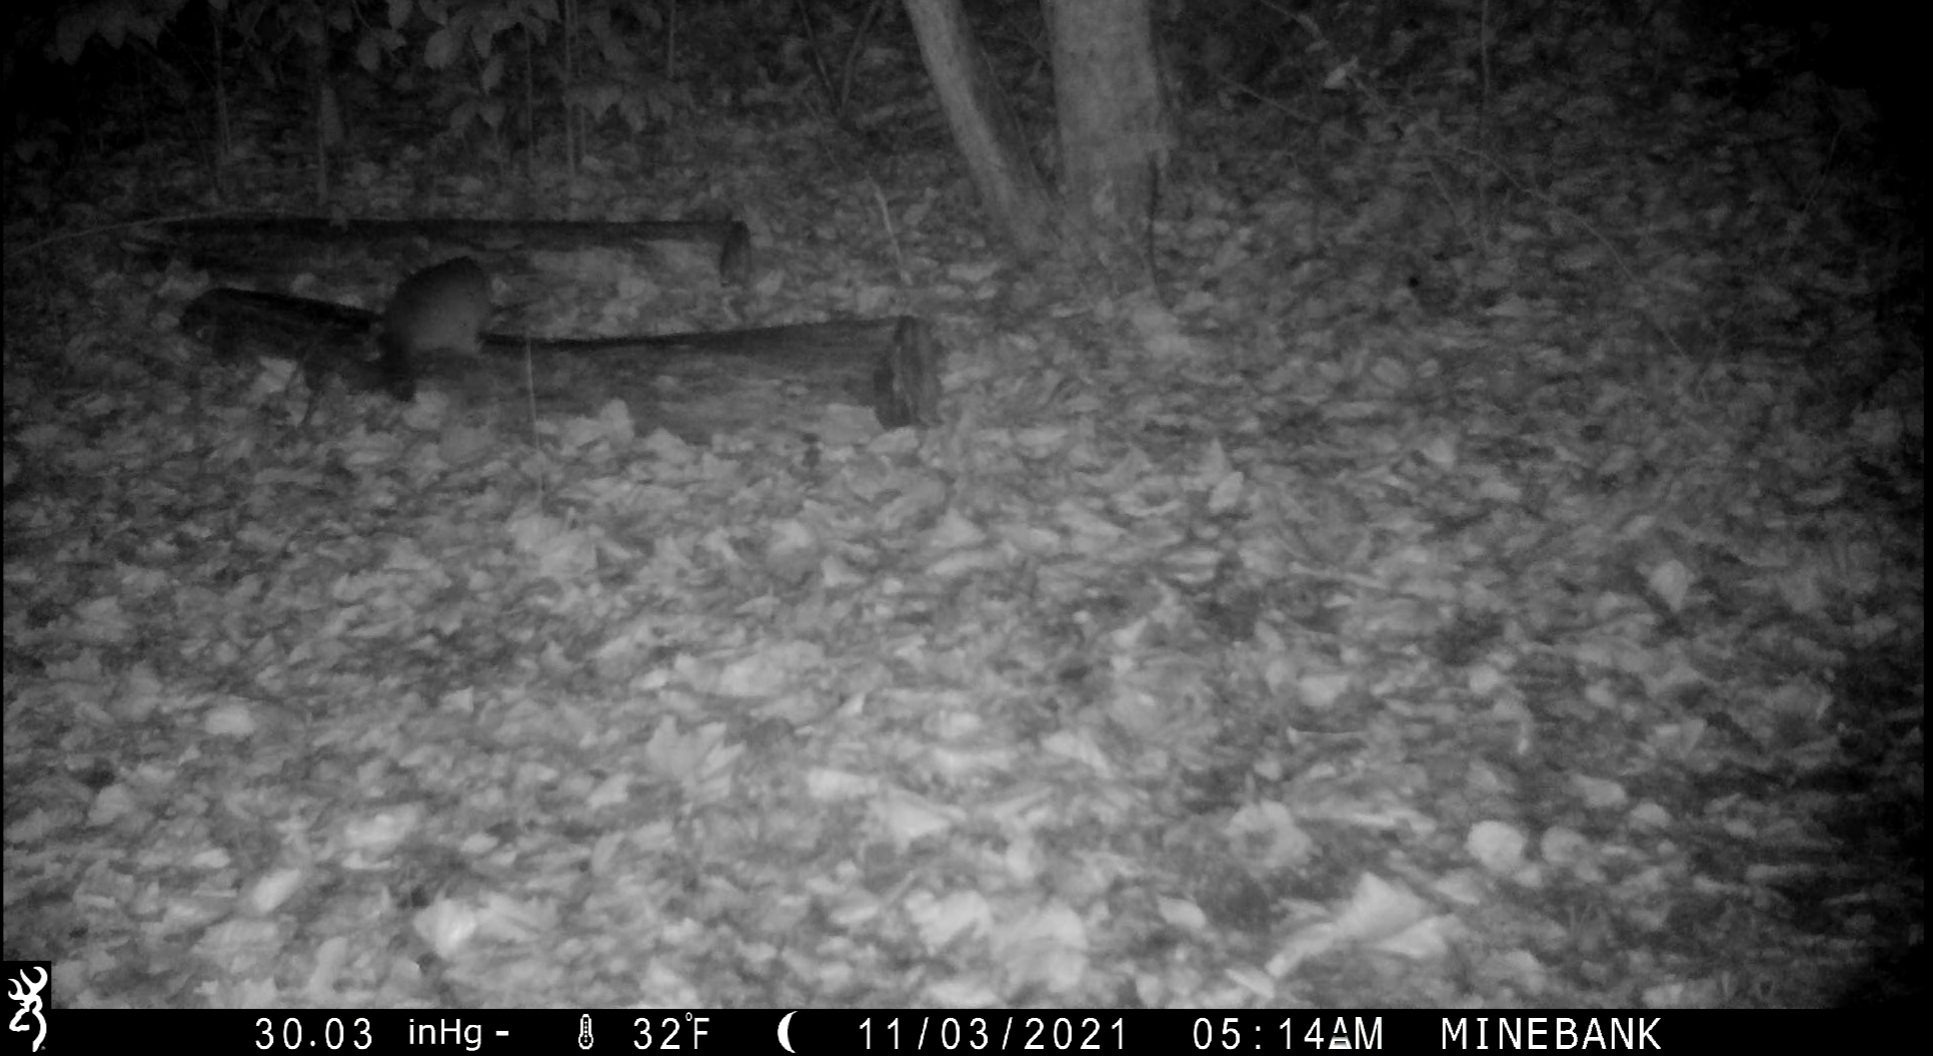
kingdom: Animalia
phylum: Chordata
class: Mammalia
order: Carnivora
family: Procyonidae
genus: Procyon
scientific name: Procyon lotor
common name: Raccoon
